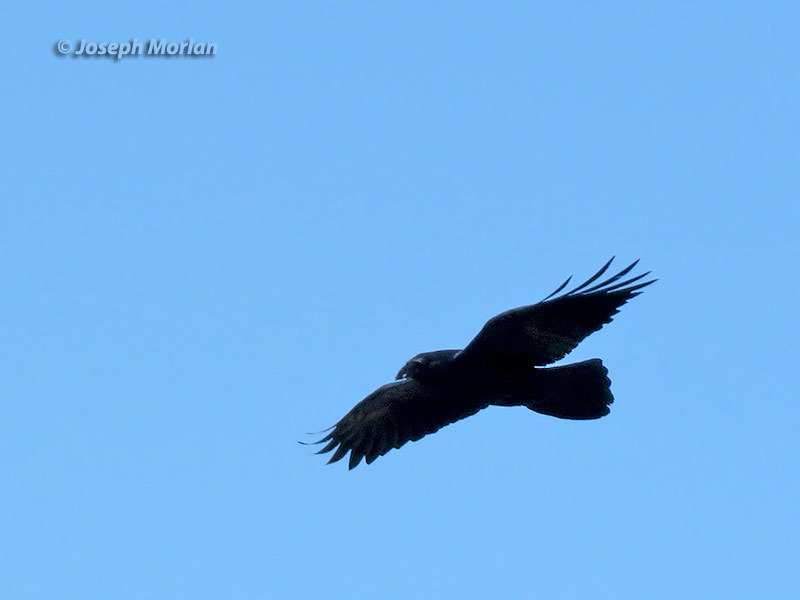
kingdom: Animalia
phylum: Chordata
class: Aves
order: Passeriformes
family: Corvidae
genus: Corvus
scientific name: Corvus corax
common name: Common raven
